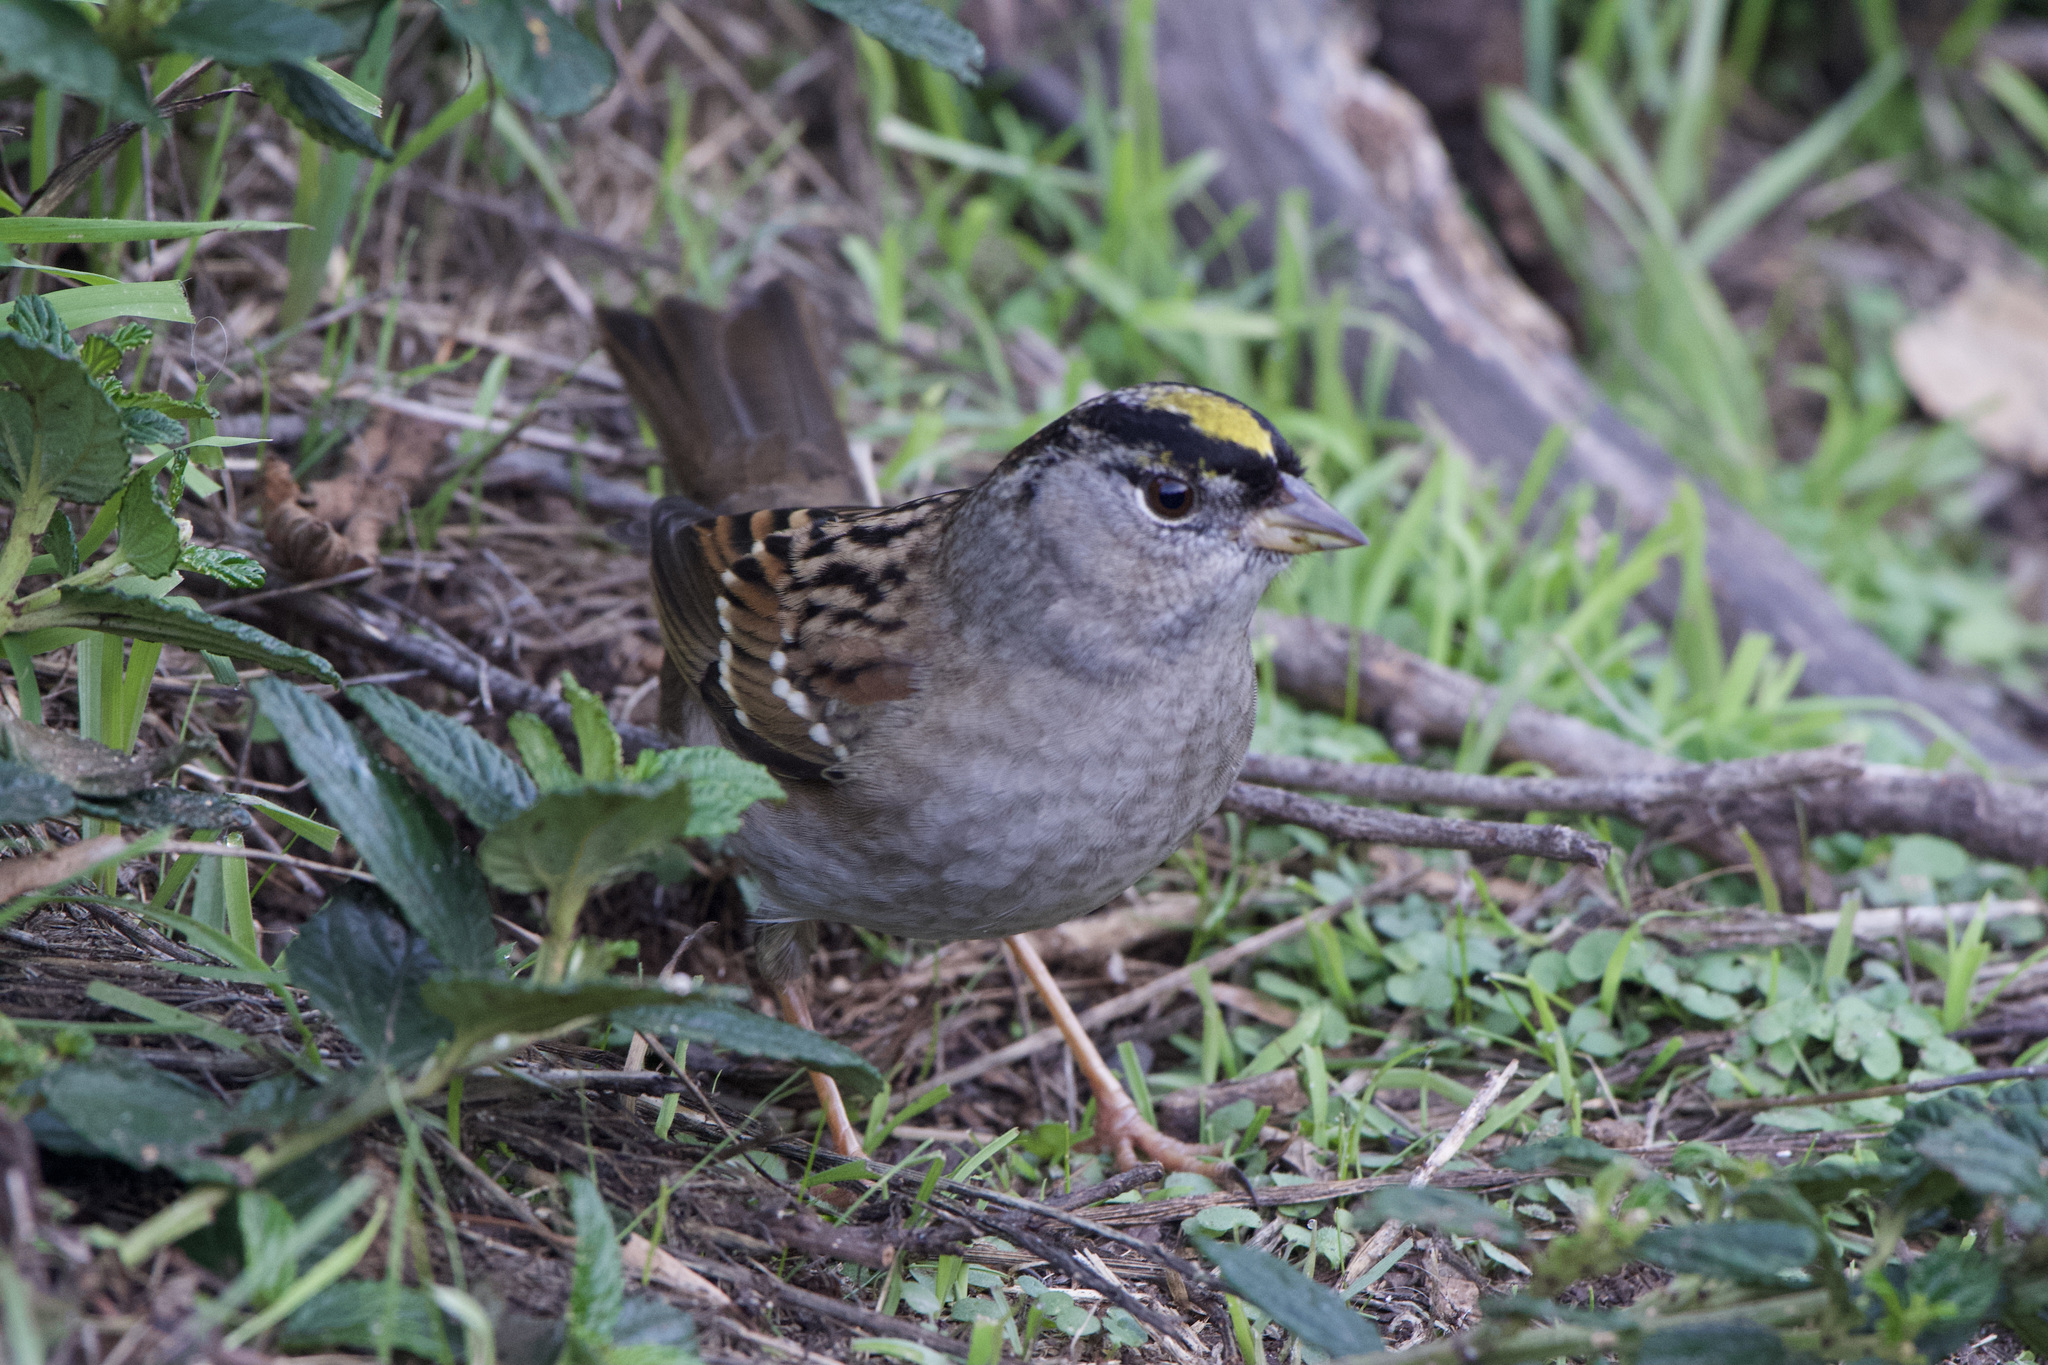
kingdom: Animalia
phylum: Chordata
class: Aves
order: Passeriformes
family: Passerellidae
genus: Zonotrichia
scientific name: Zonotrichia atricapilla
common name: Golden-crowned sparrow
